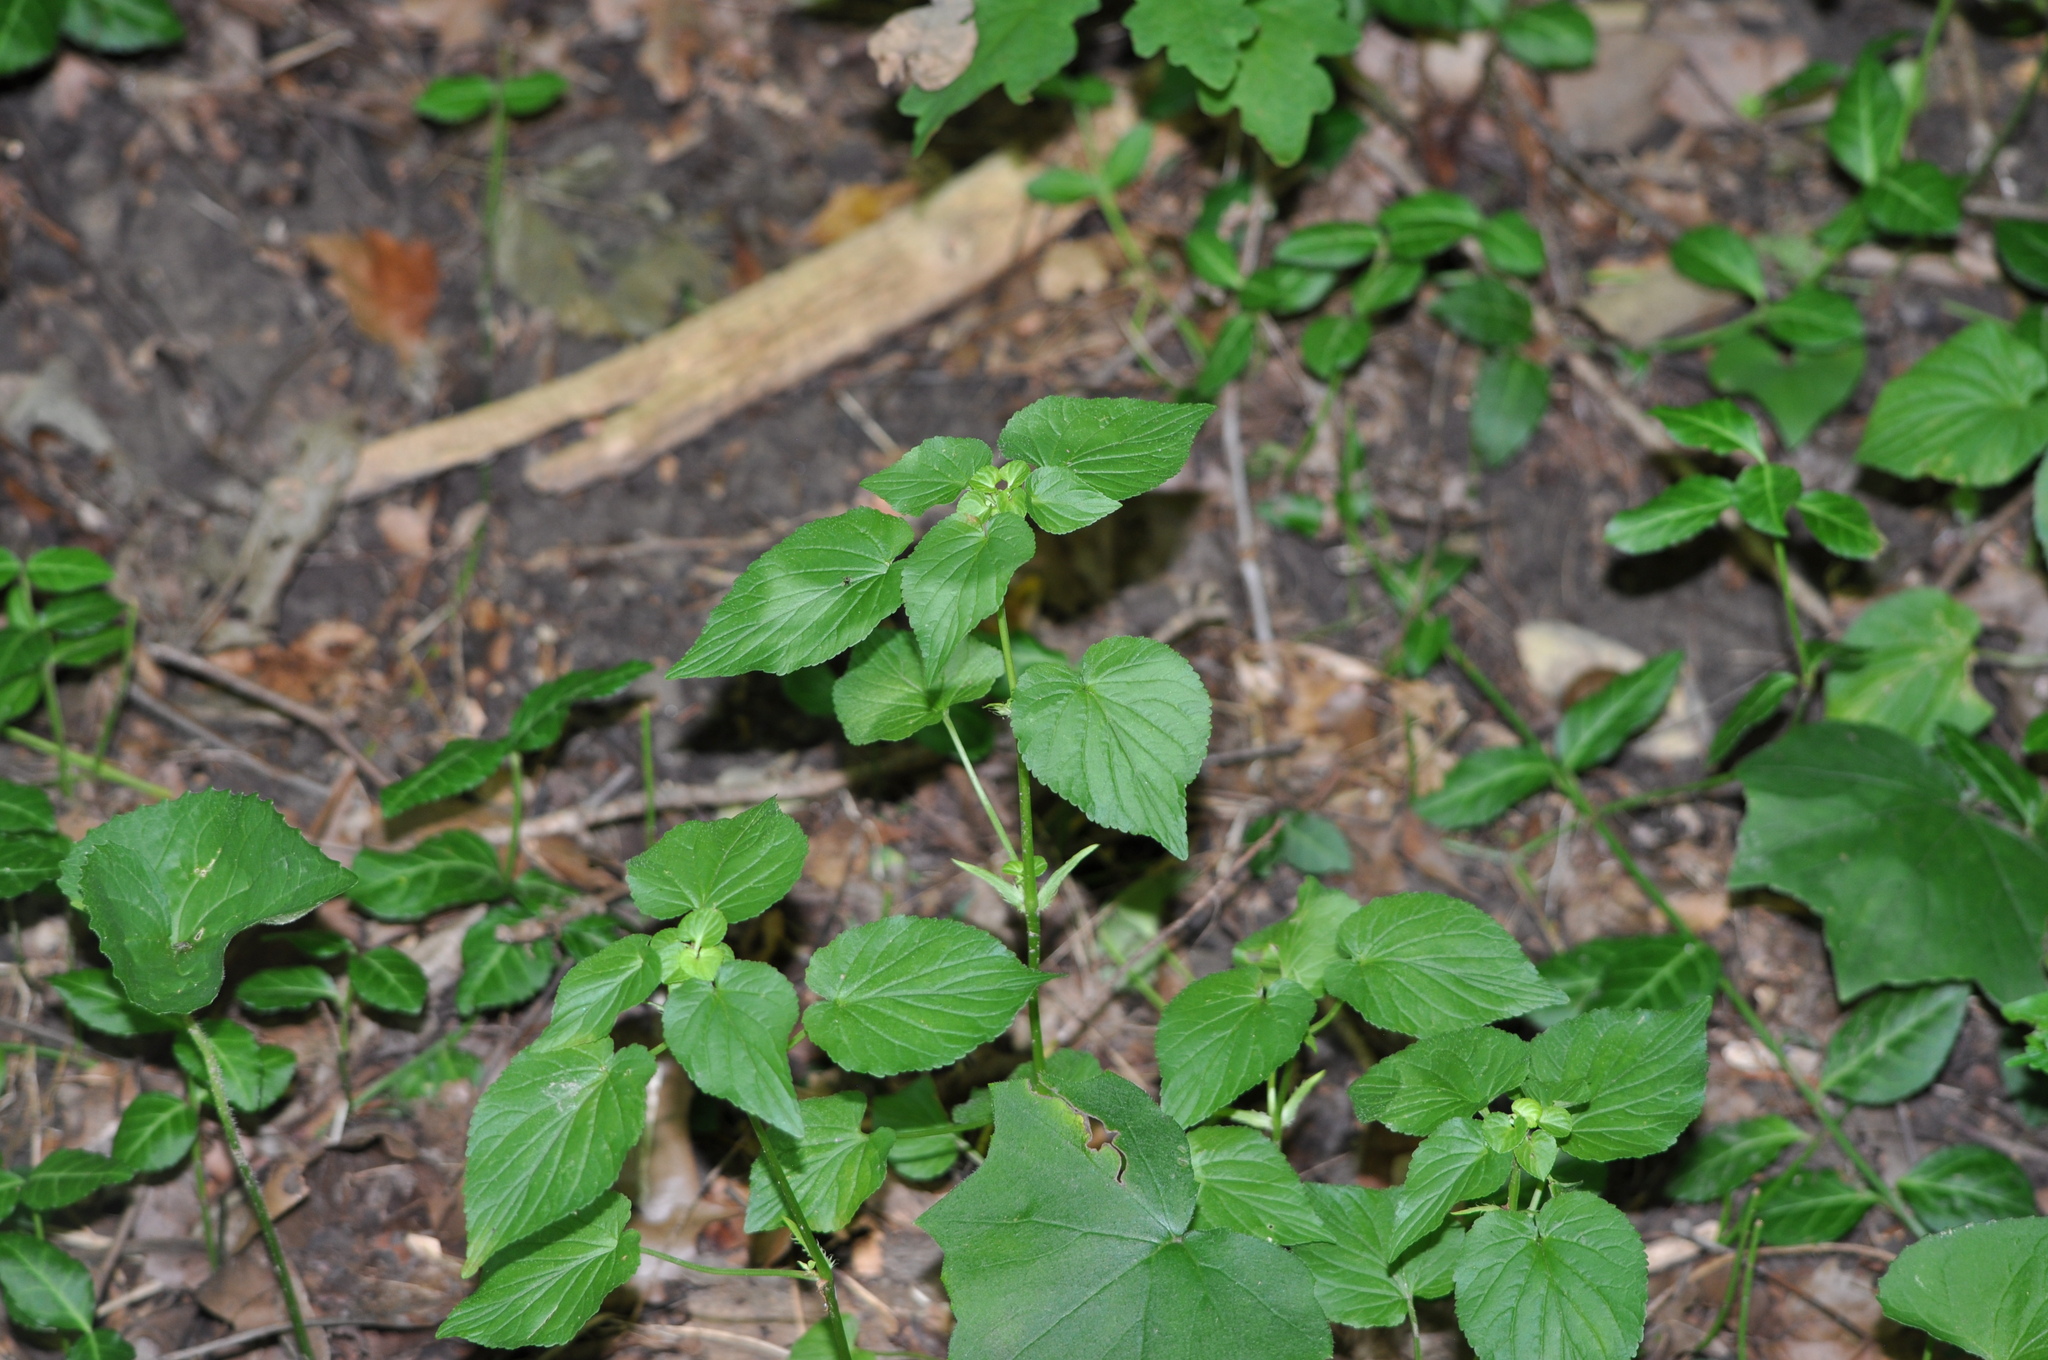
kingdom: Plantae
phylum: Tracheophyta
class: Magnoliopsida
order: Malpighiales
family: Violaceae
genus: Viola
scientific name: Viola striata
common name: Cream violet
